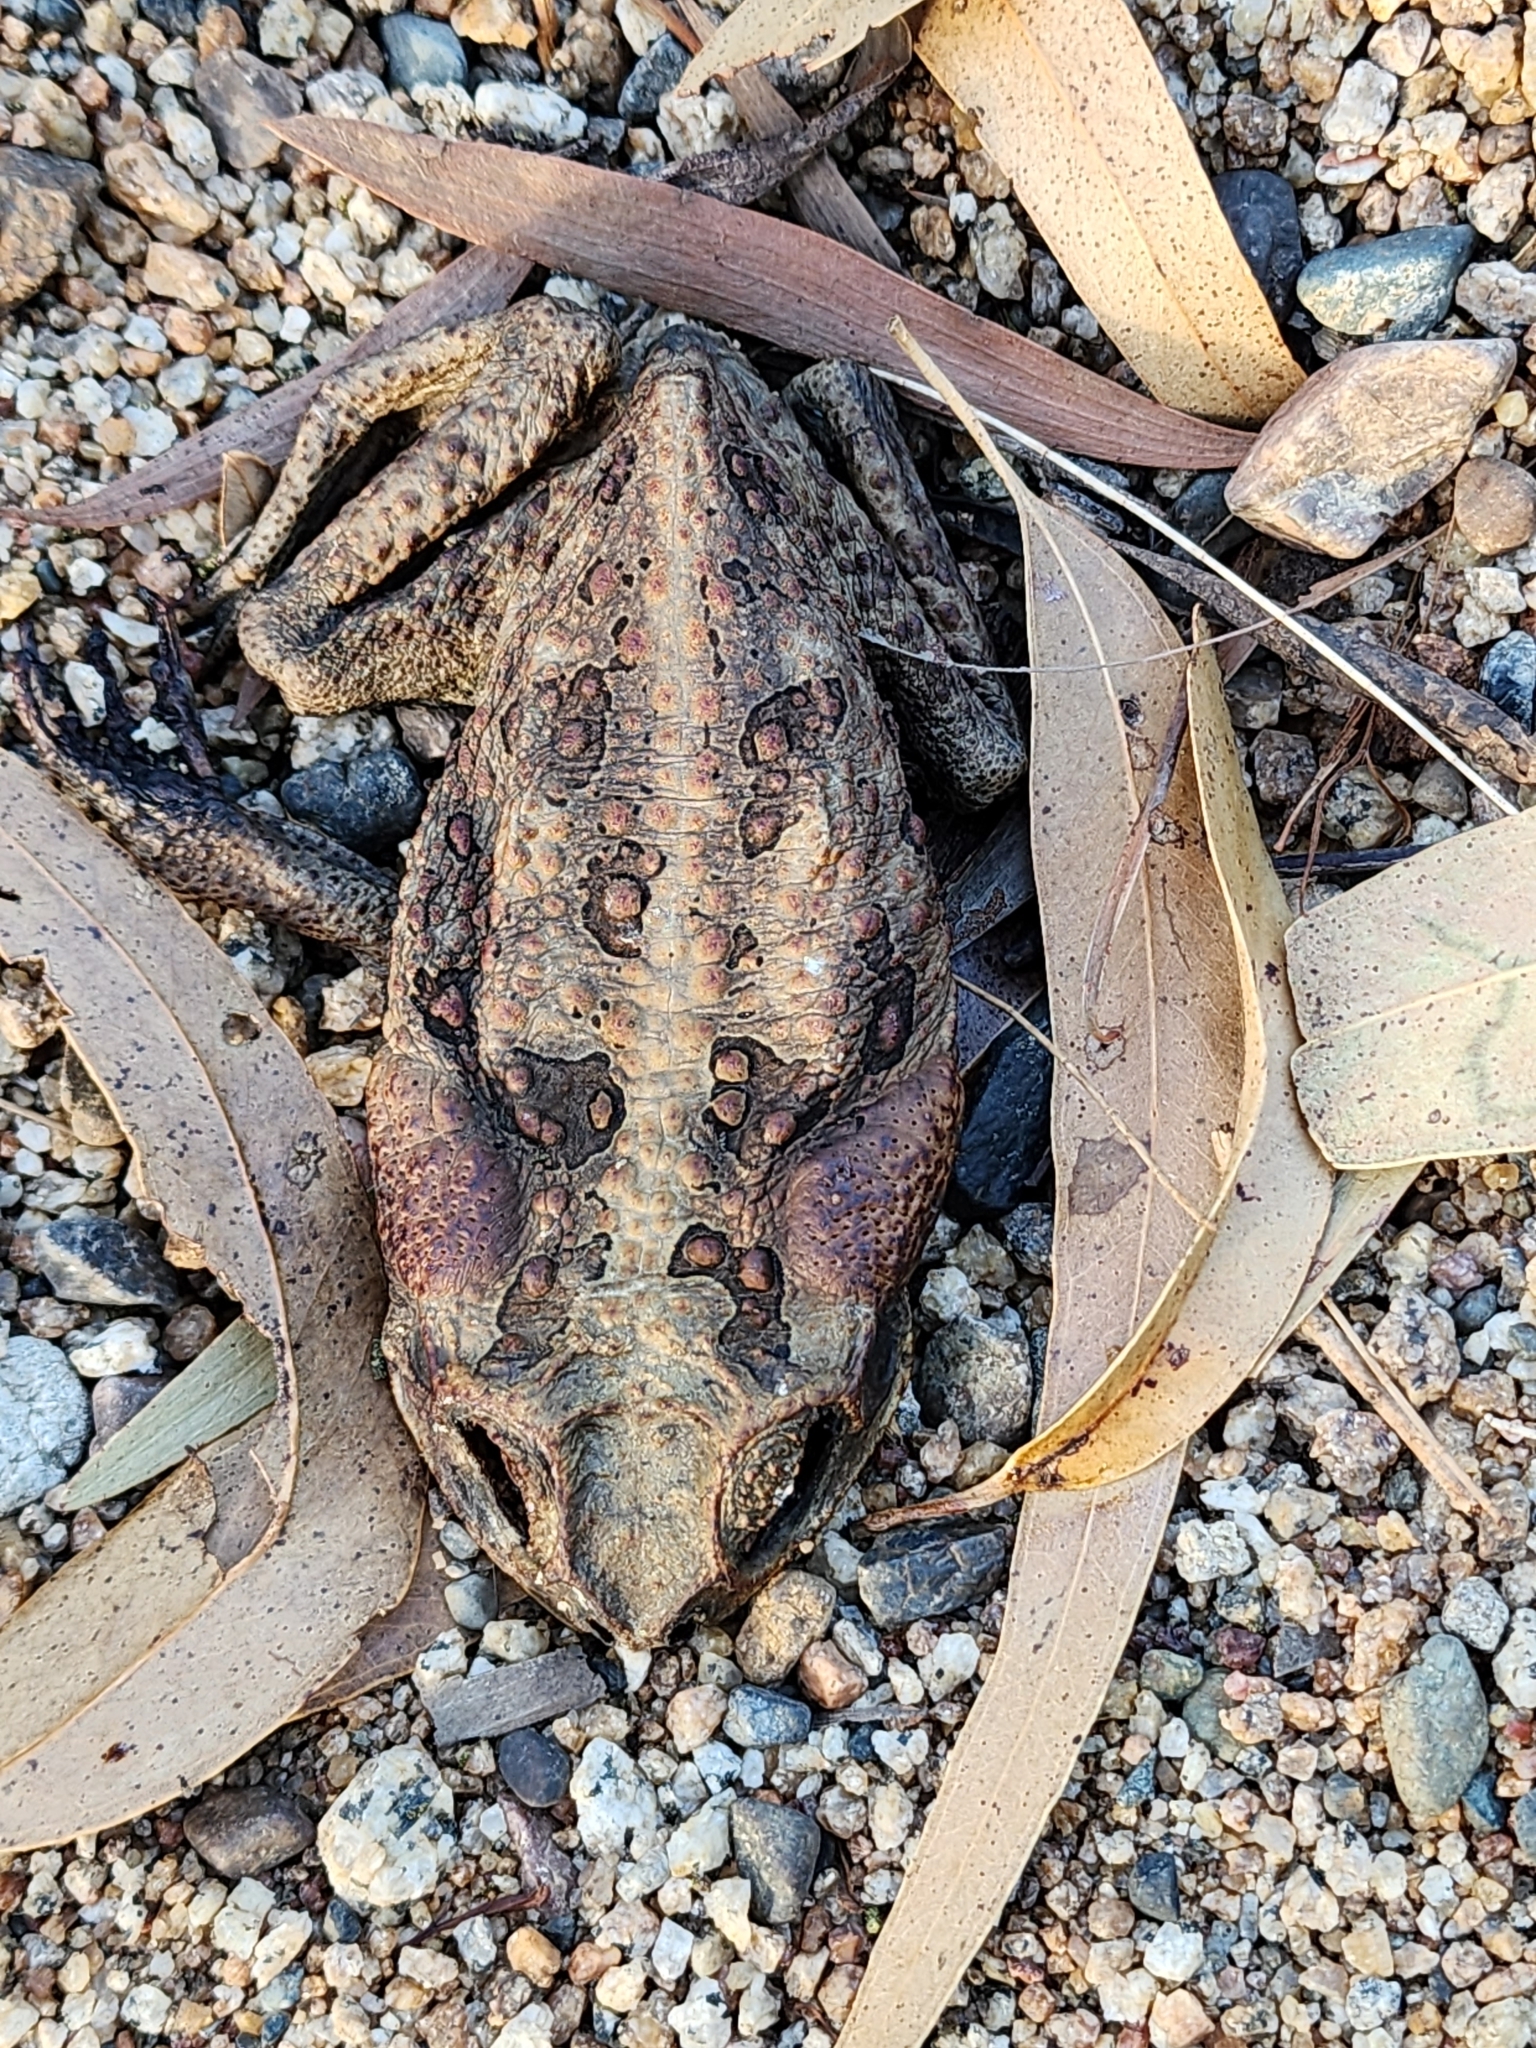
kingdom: Animalia
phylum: Chordata
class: Amphibia
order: Anura
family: Bufonidae
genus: Rhinella
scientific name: Rhinella marina
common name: Cane toad
